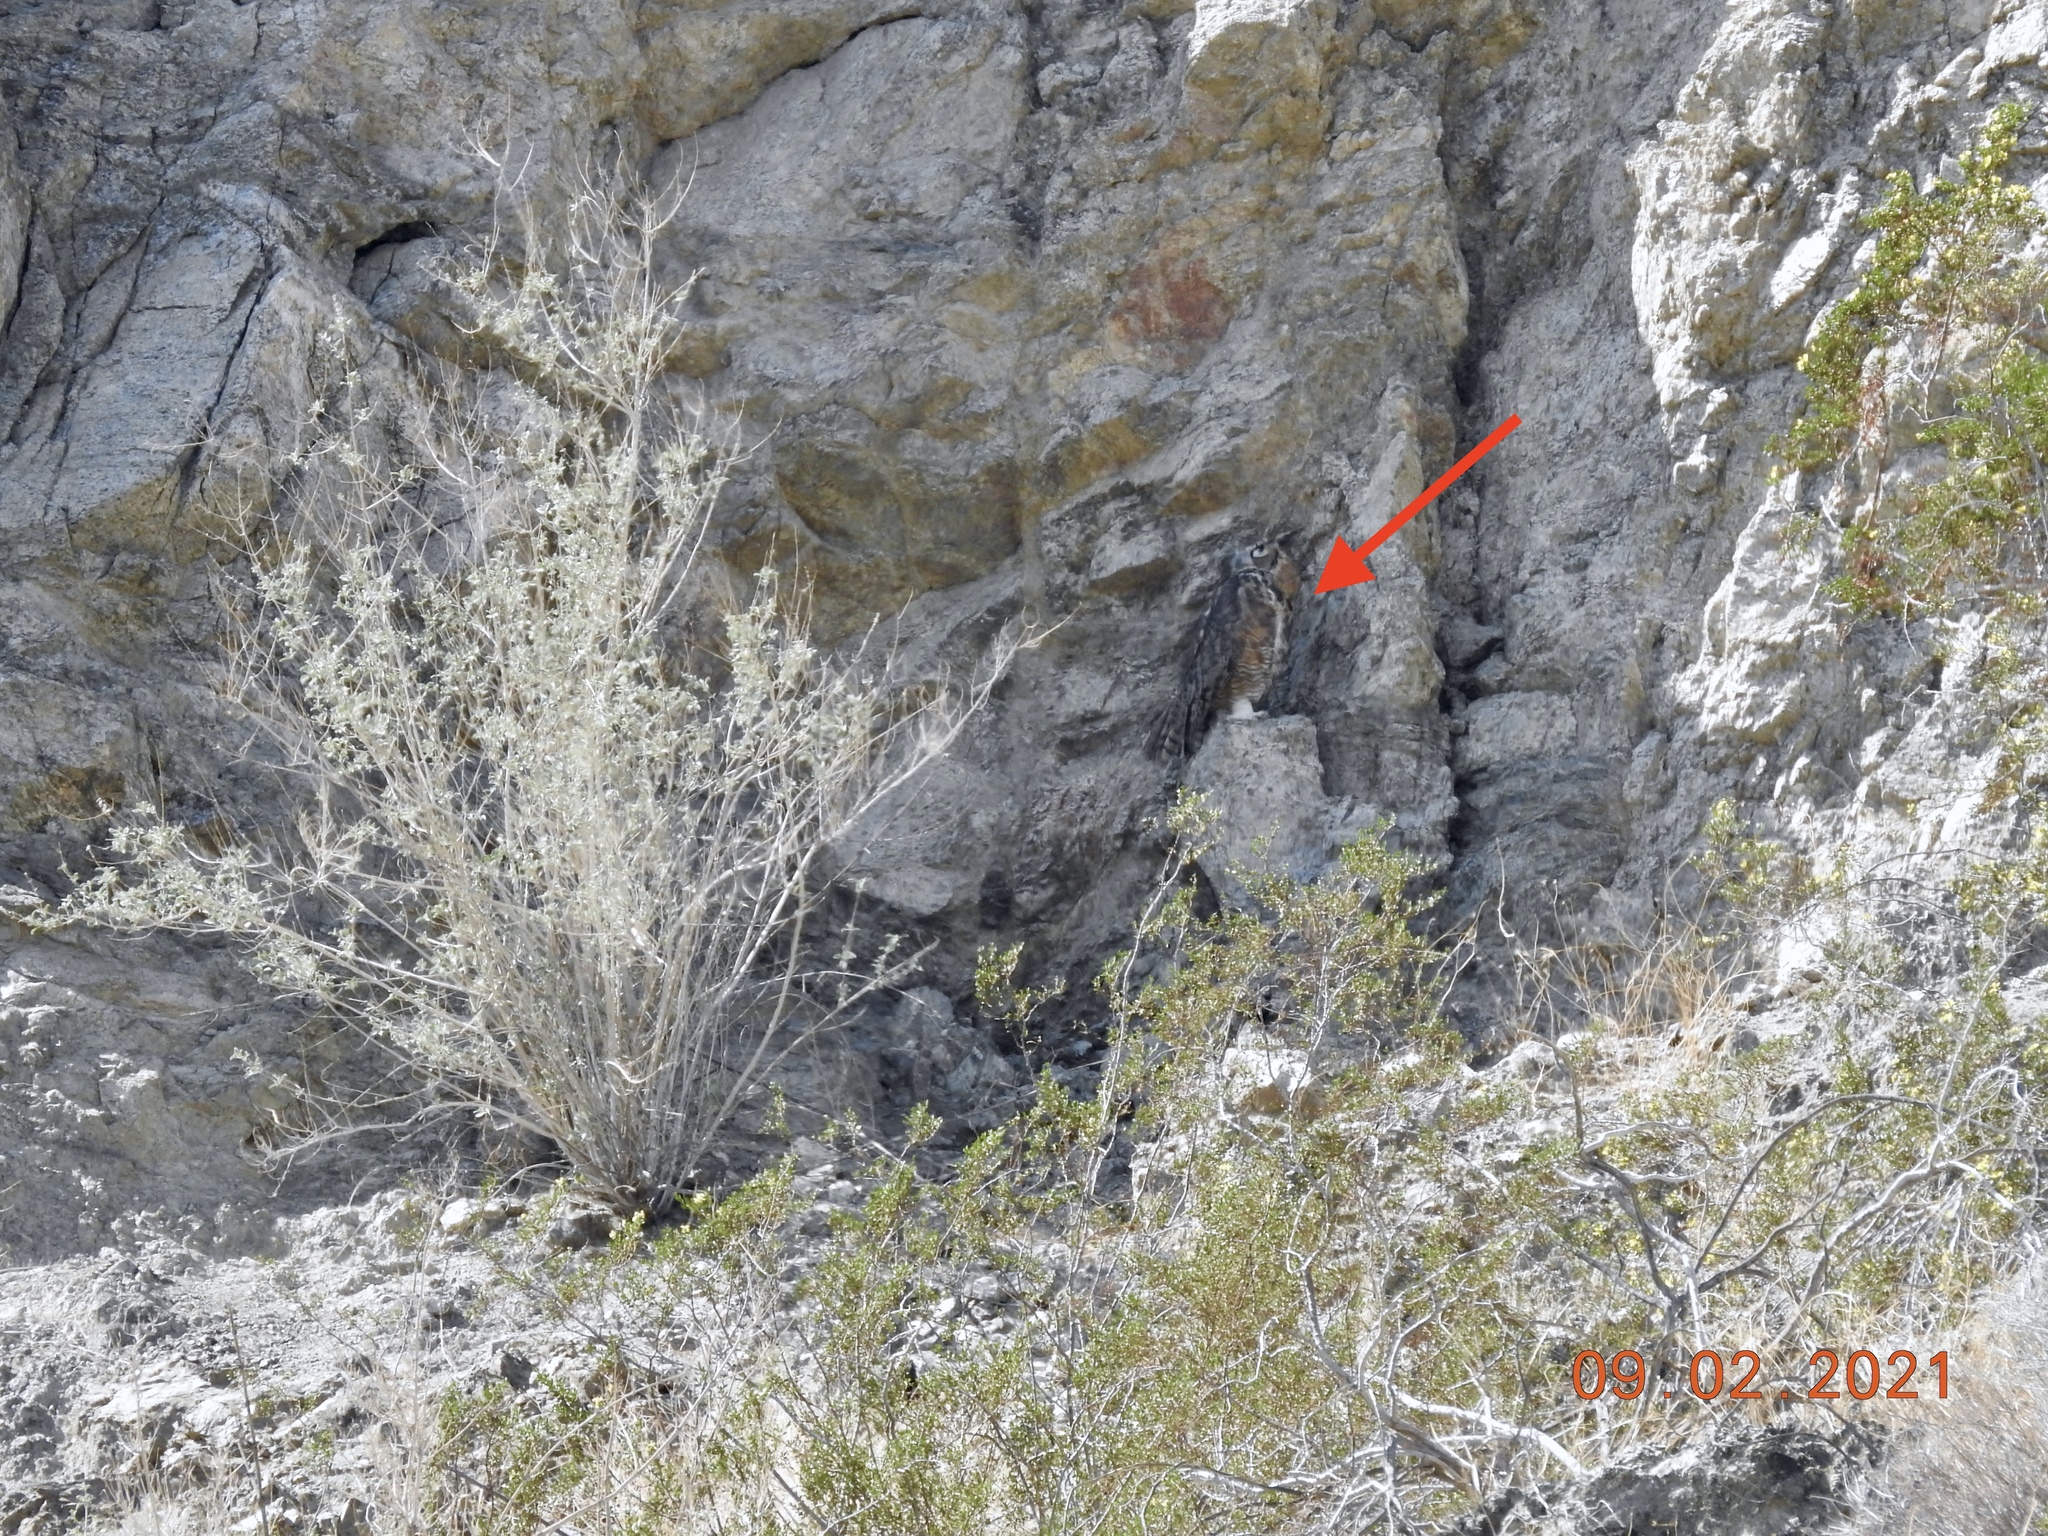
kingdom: Animalia
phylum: Chordata
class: Aves
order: Strigiformes
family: Strigidae
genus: Bubo
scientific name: Bubo virginianus
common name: Great horned owl
